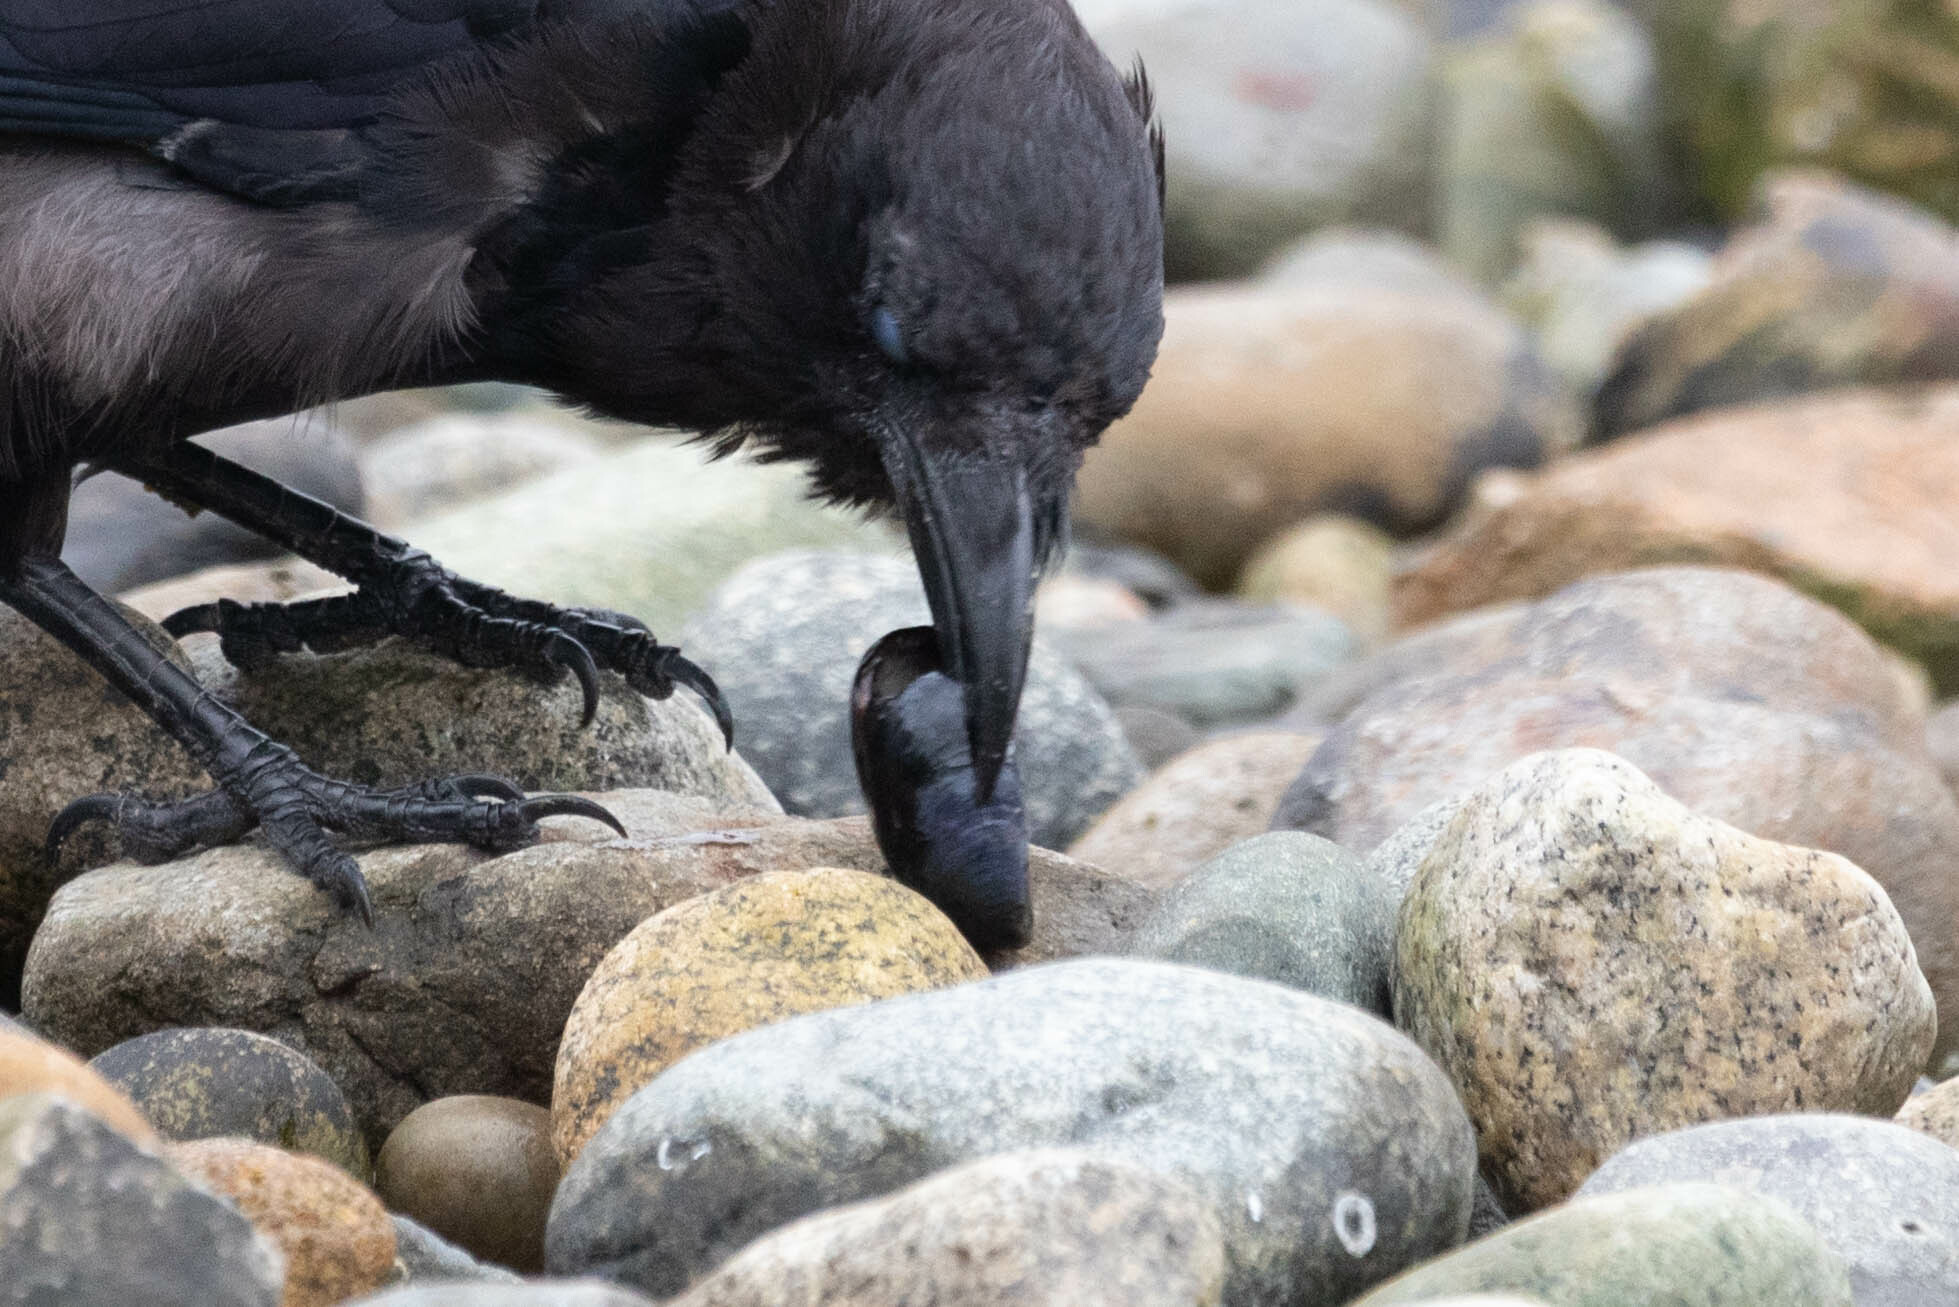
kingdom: Animalia
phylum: Mollusca
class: Bivalvia
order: Mytilida
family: Mytilidae
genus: Mytilus
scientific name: Mytilus
